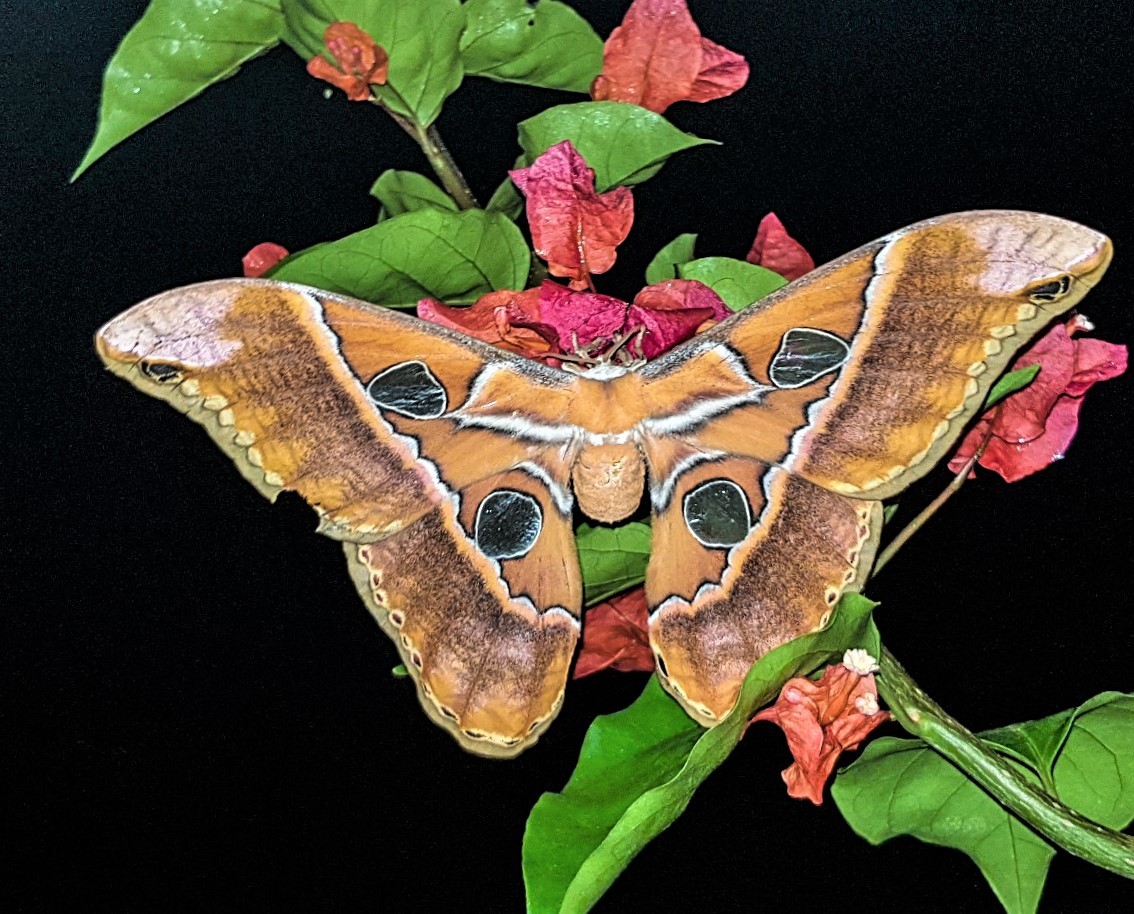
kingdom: Animalia
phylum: Arthropoda
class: Insecta
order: Lepidoptera
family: Saturniidae
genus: Rothschildia
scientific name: Rothschildia hesperus
